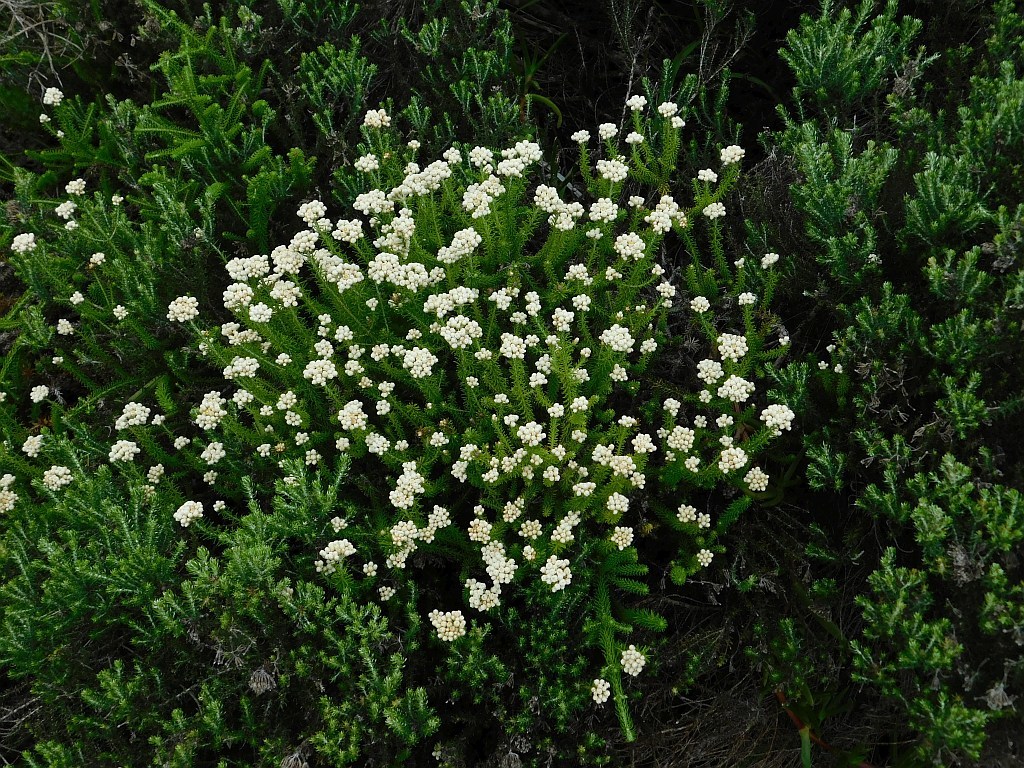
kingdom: Plantae
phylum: Tracheophyta
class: Magnoliopsida
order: Asterales
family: Asteraceae
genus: Helichrysum
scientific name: Helichrysum teretifolium
